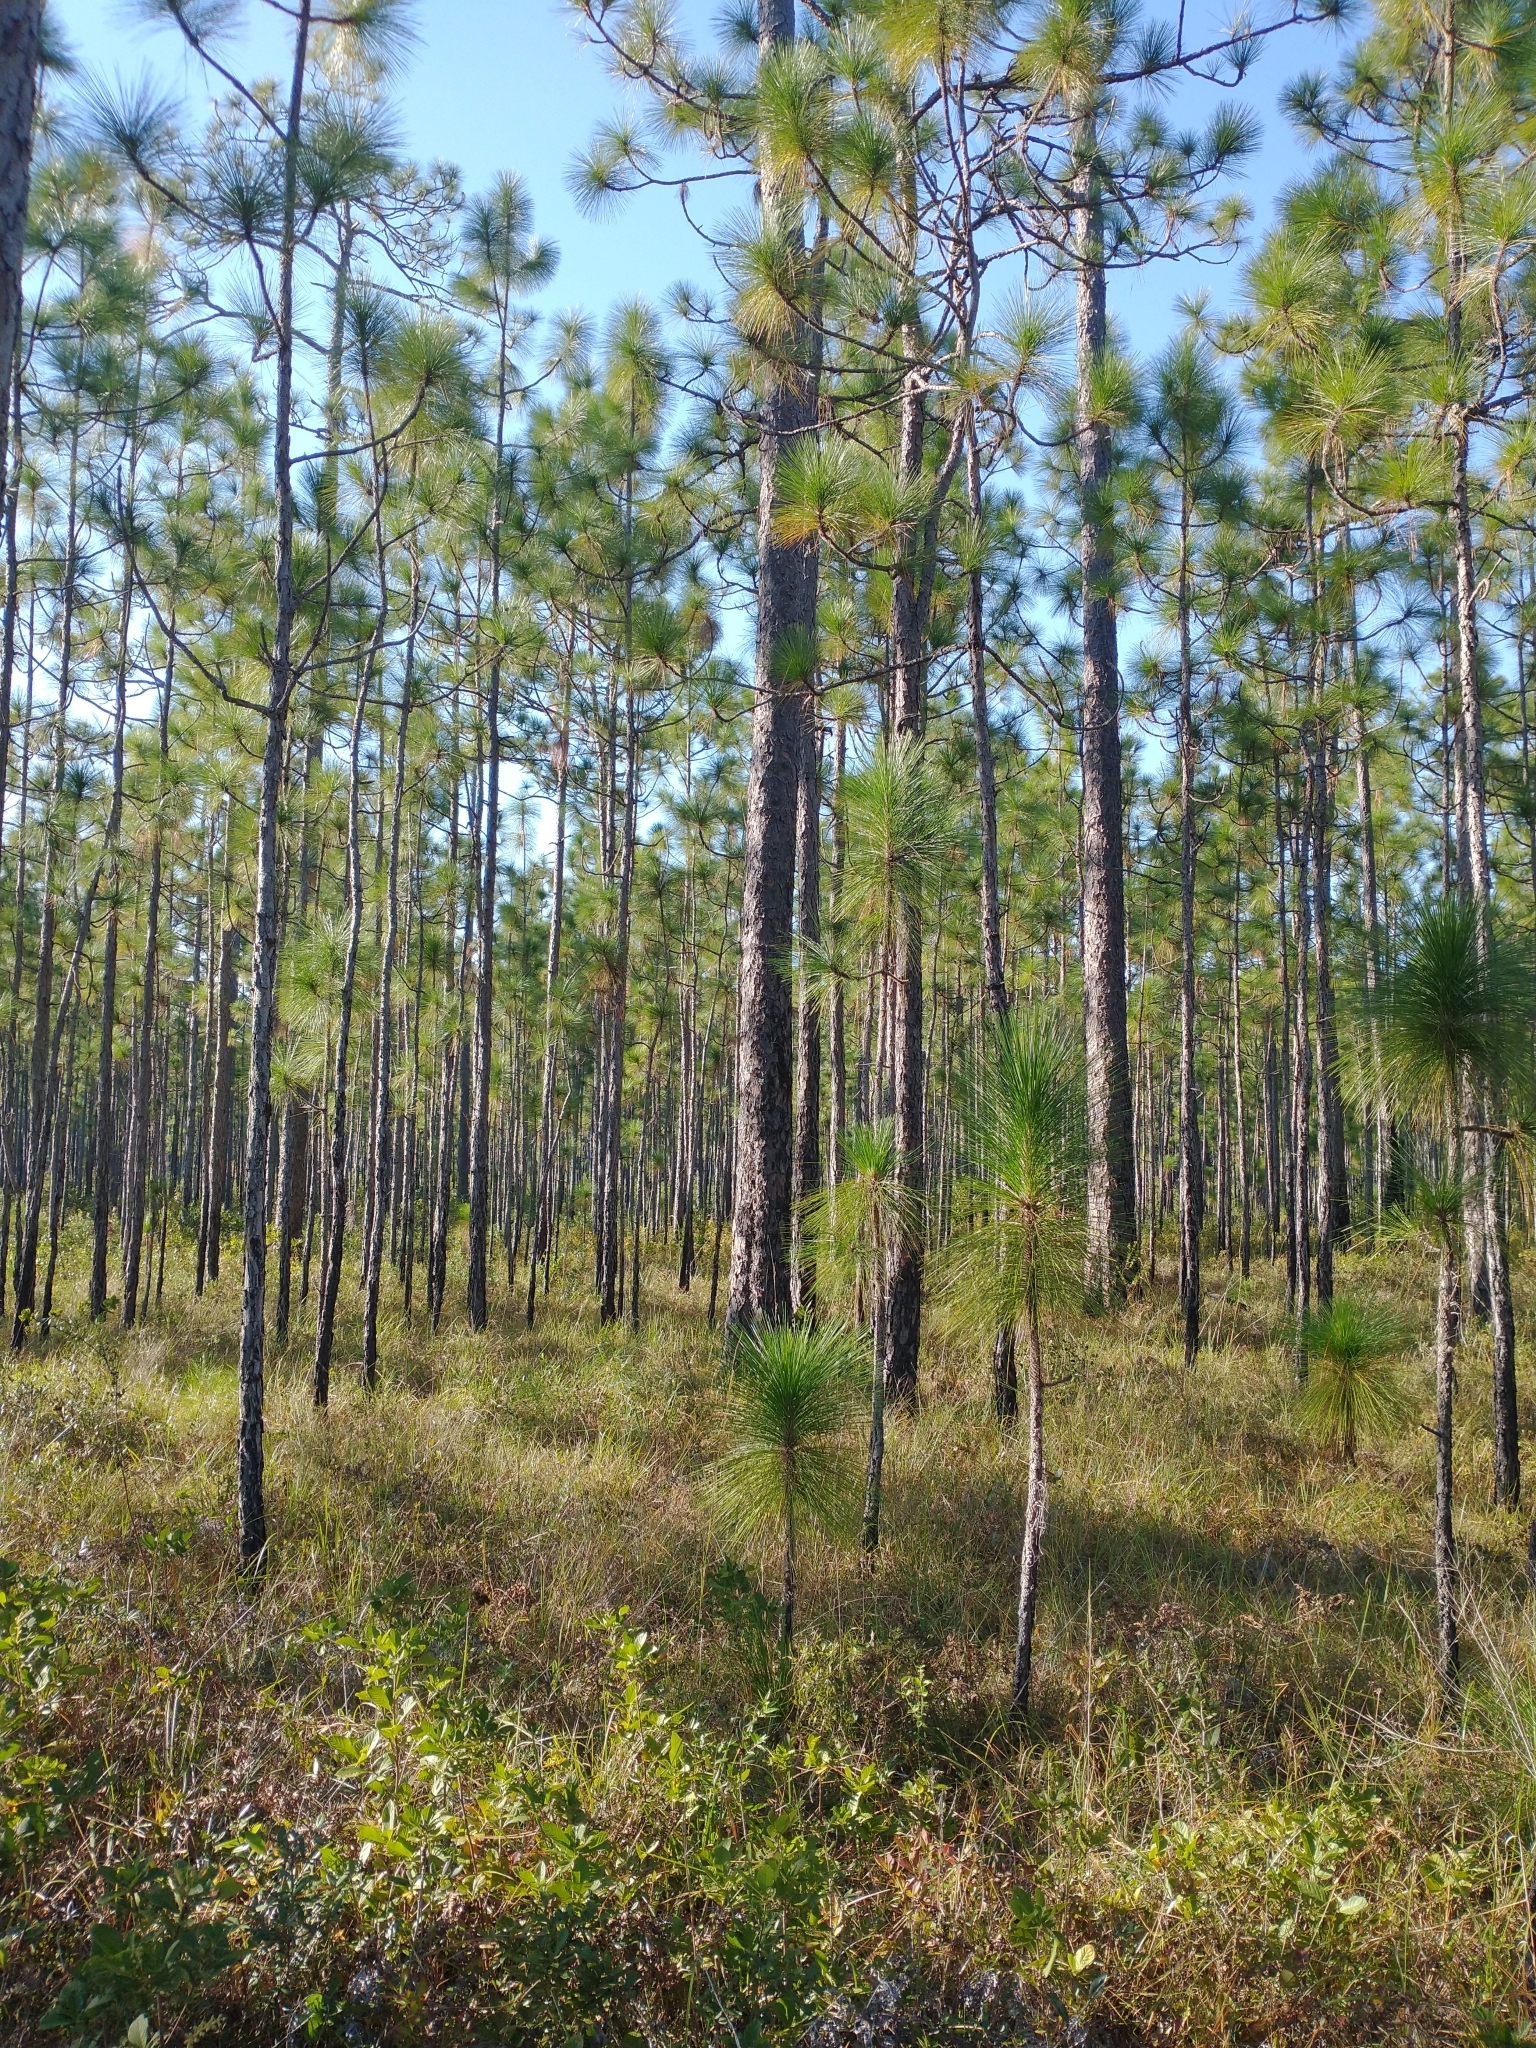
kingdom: Plantae
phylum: Tracheophyta
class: Pinopsida
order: Pinales
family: Pinaceae
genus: Pinus
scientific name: Pinus palustris
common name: Longleaf pine
